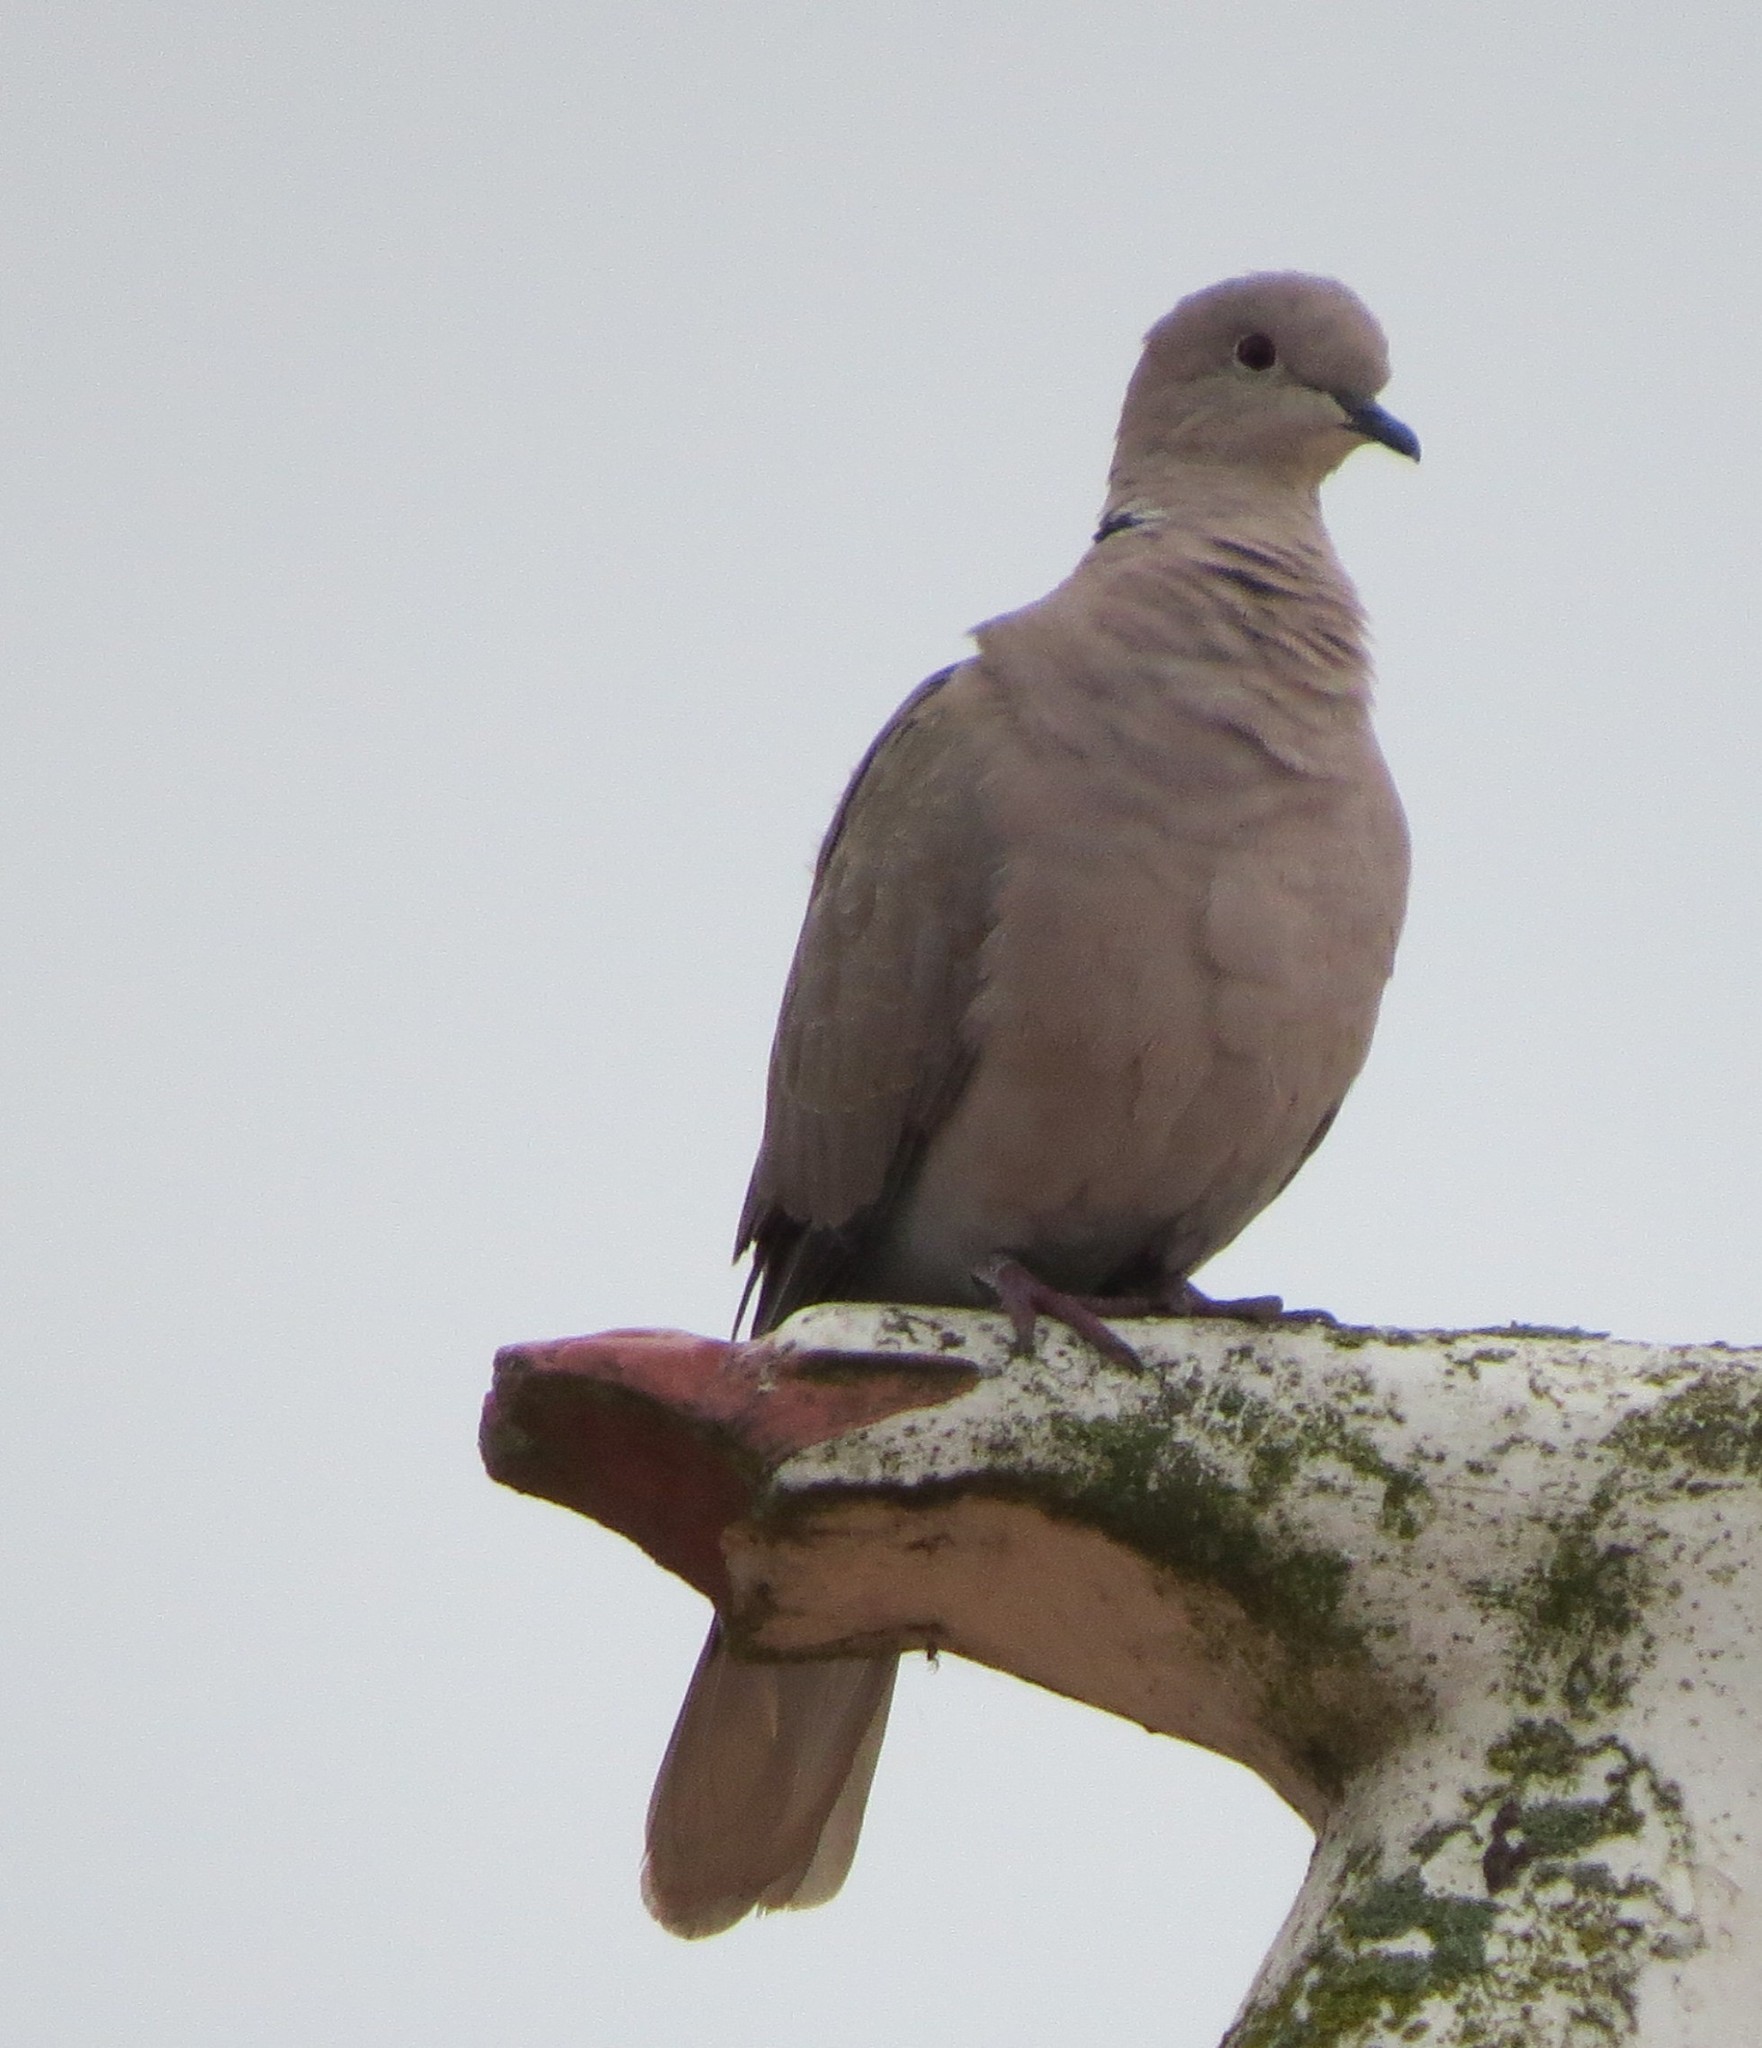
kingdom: Animalia
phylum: Chordata
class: Aves
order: Columbiformes
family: Columbidae
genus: Streptopelia
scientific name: Streptopelia decaocto
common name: Eurasian collared dove
